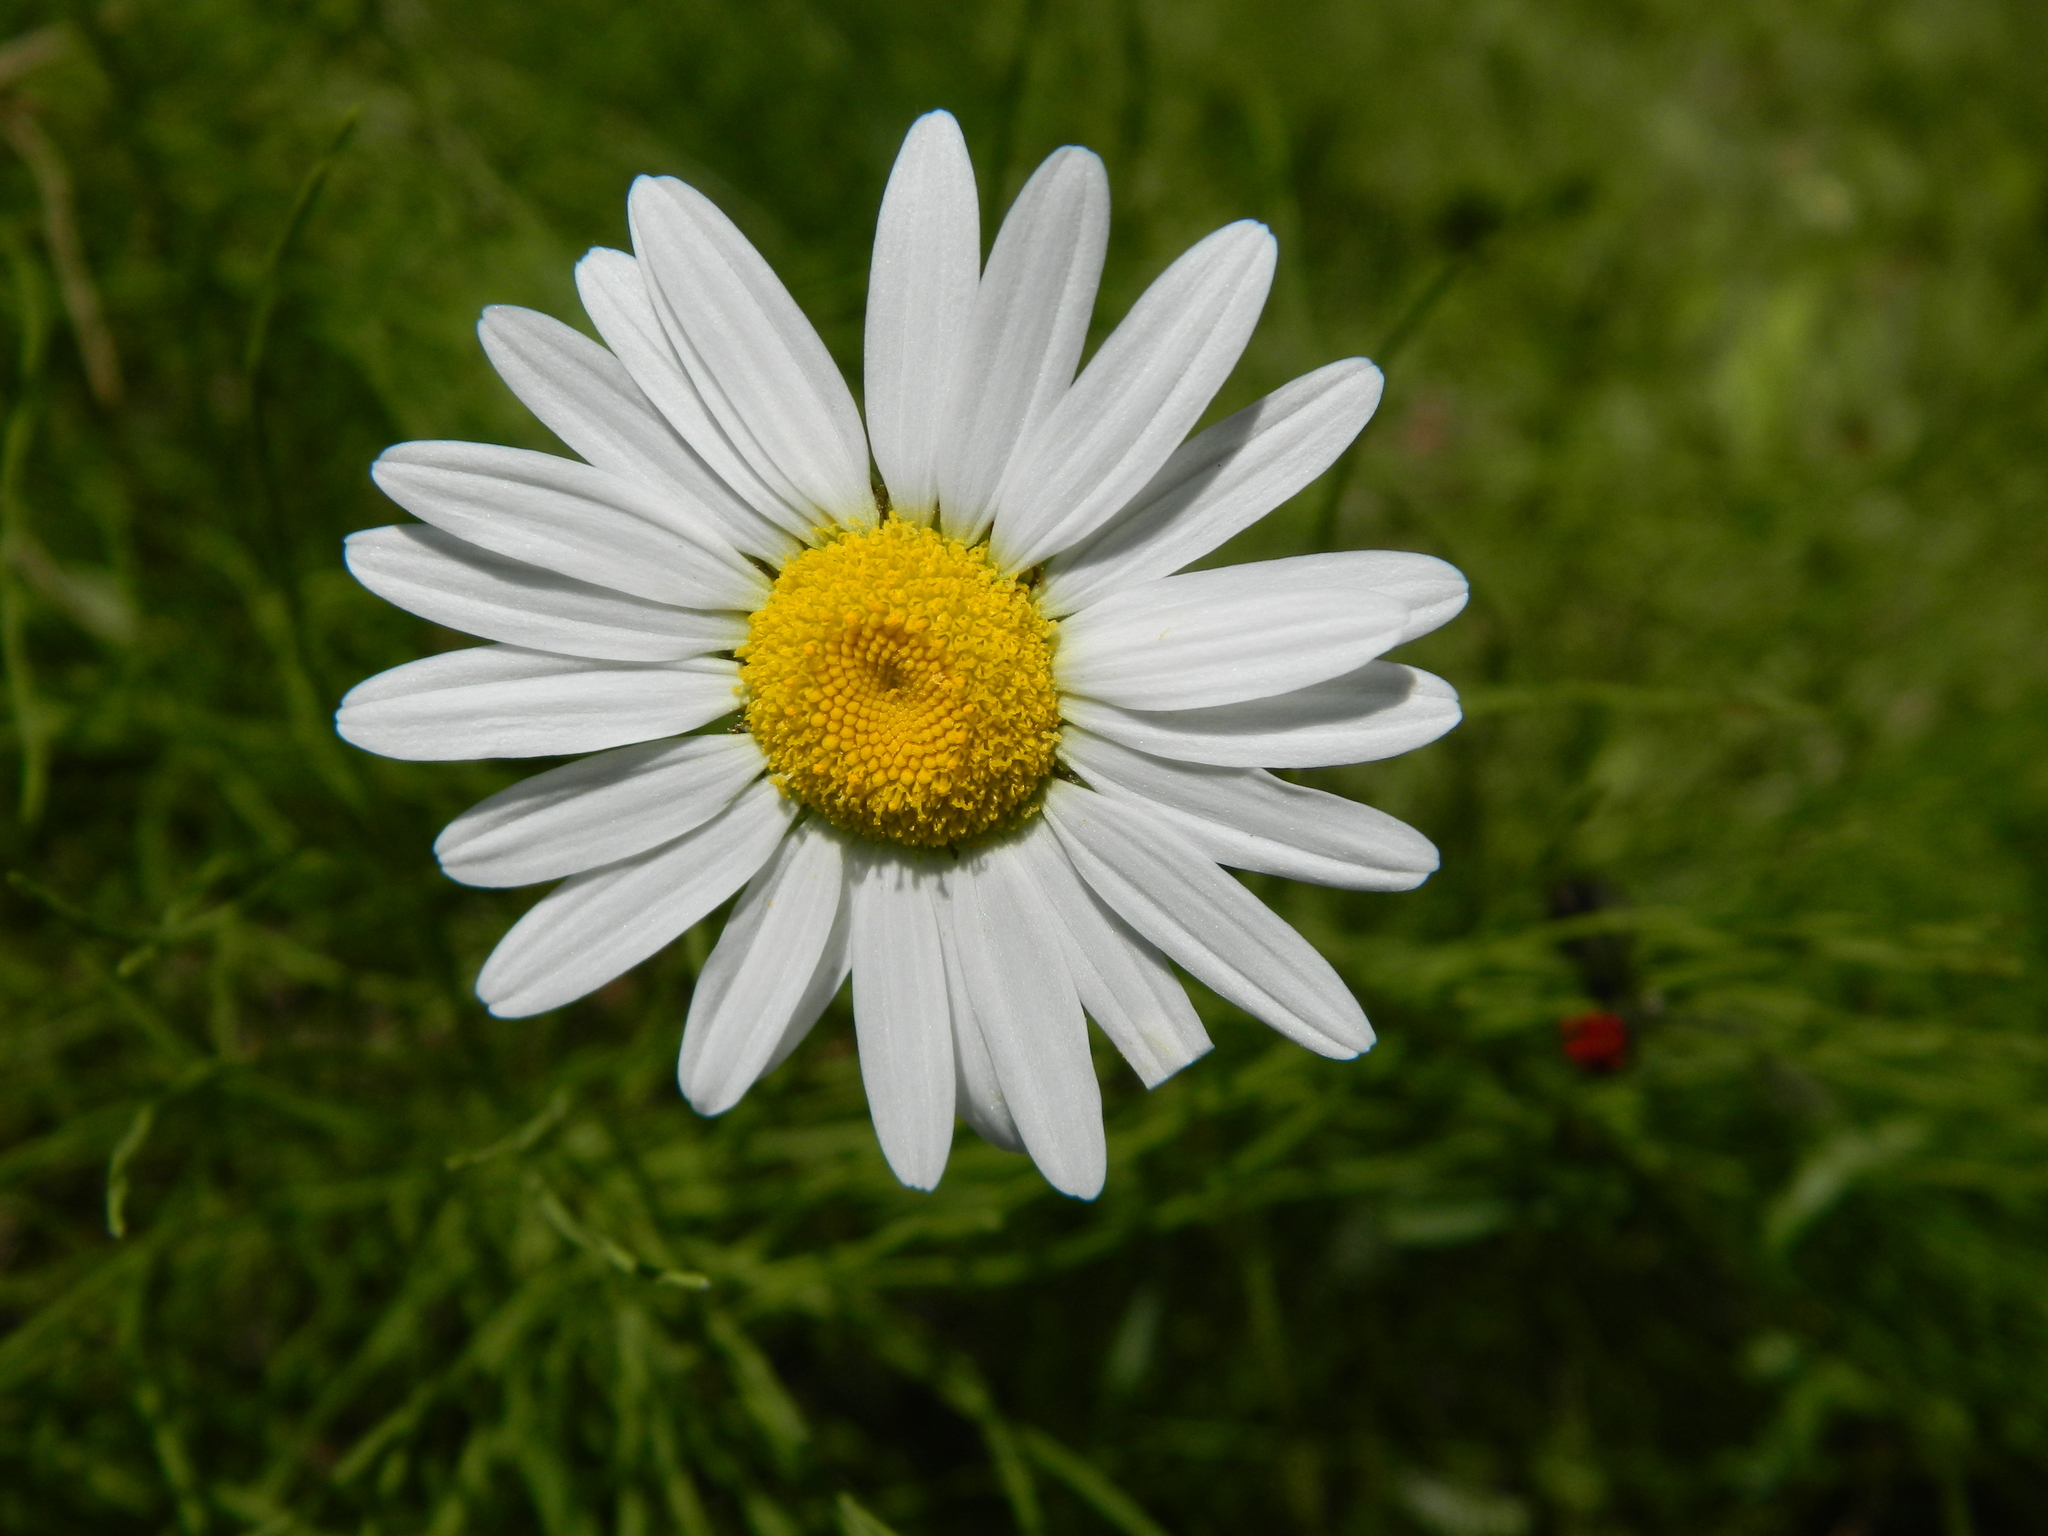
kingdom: Plantae
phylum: Tracheophyta
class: Magnoliopsida
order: Asterales
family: Asteraceae
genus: Leucanthemum
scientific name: Leucanthemum vulgare
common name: Oxeye daisy
